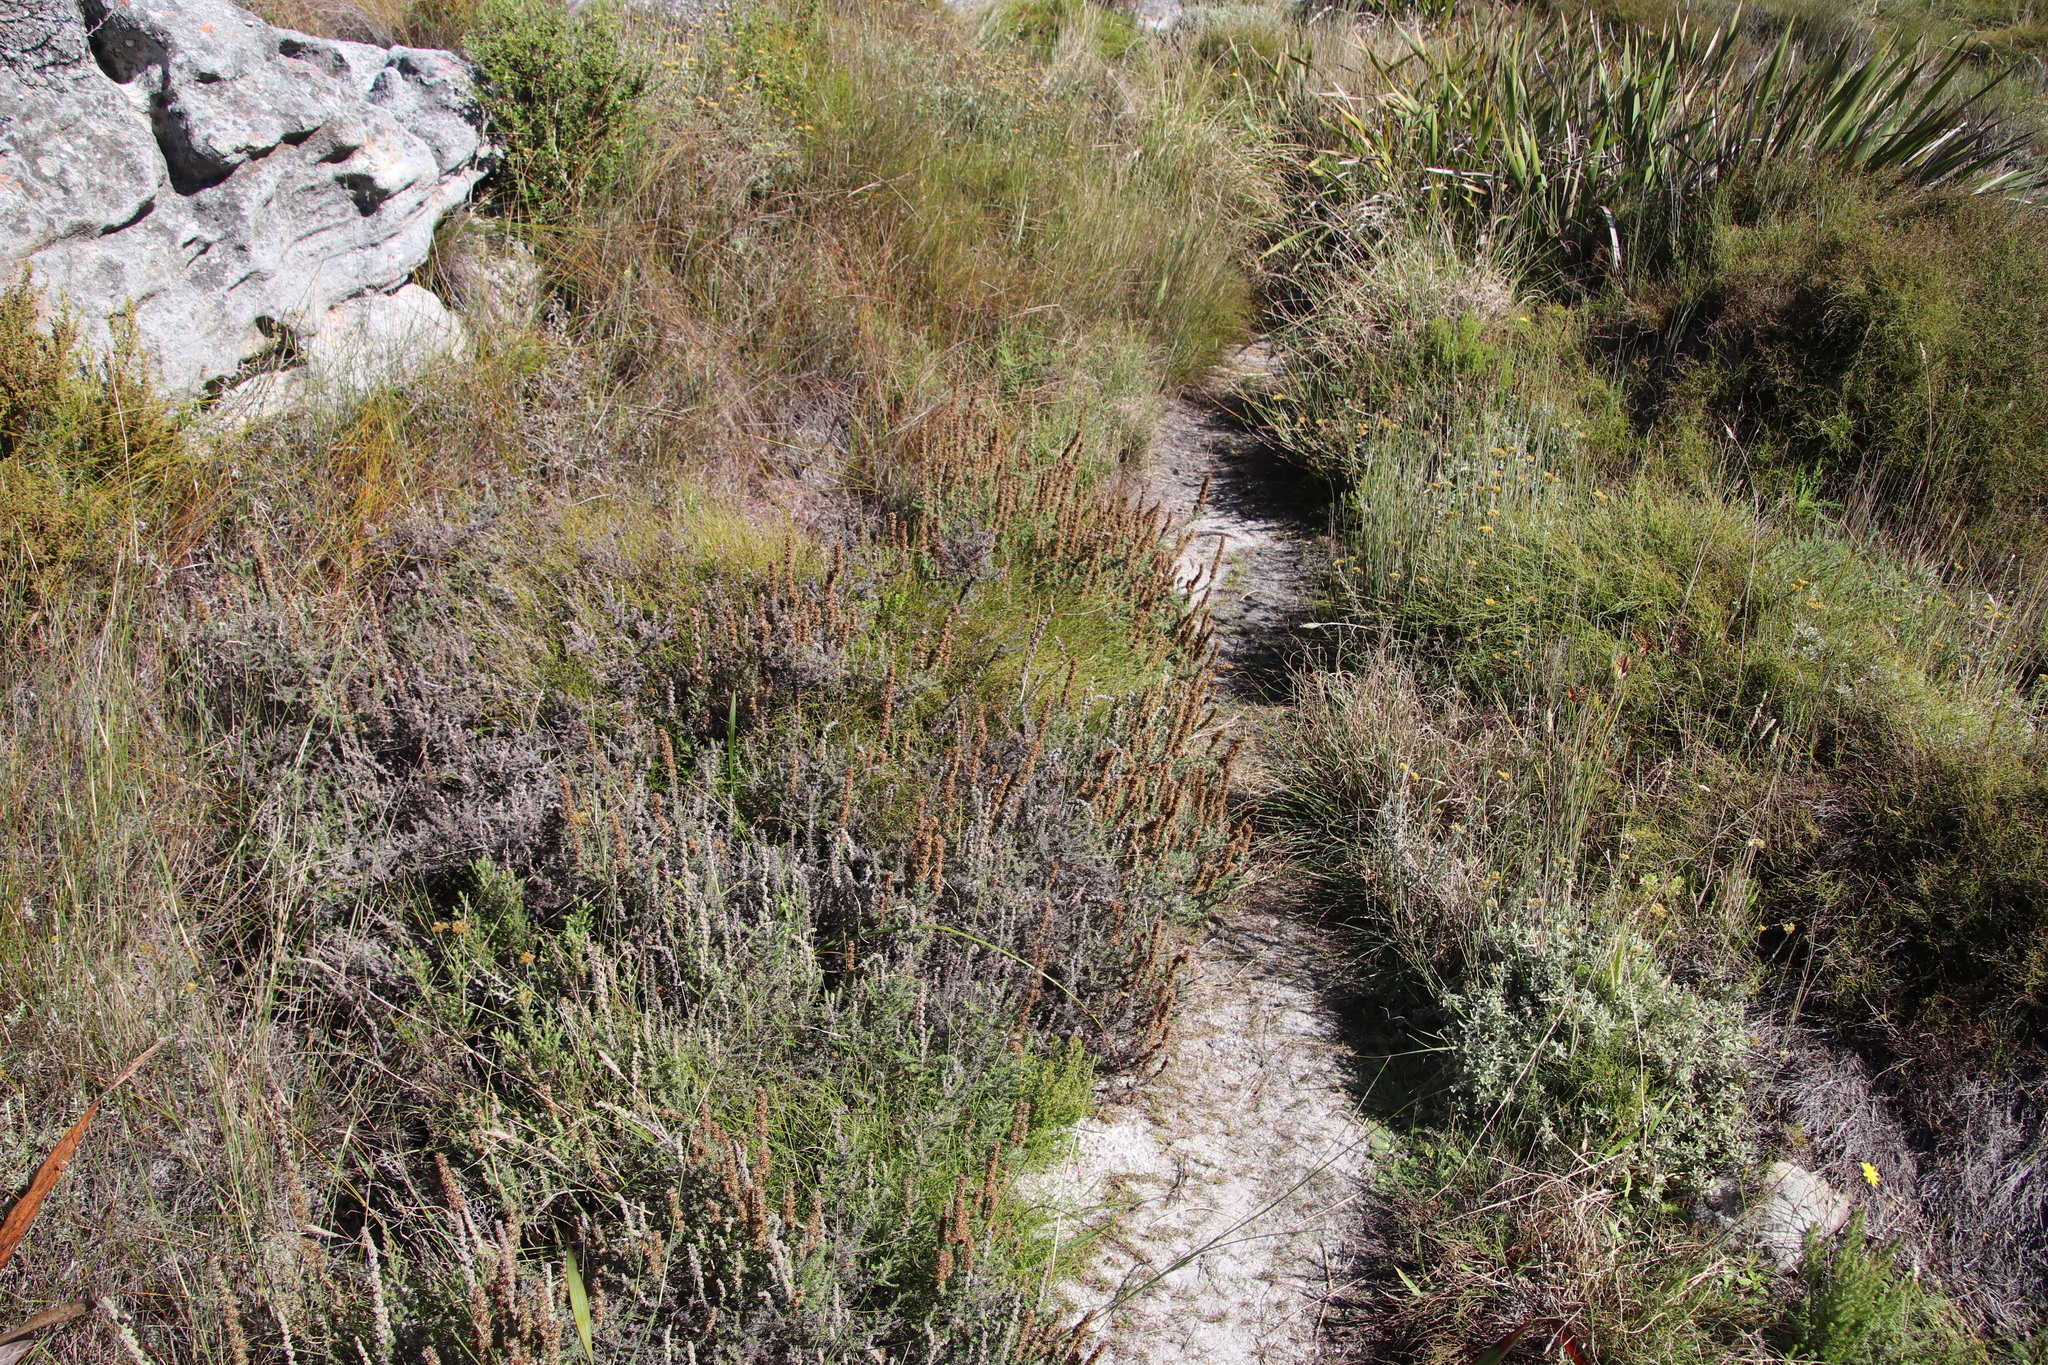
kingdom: Plantae
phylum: Tracheophyta
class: Magnoliopsida
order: Asterales
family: Asteraceae
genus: Seriphium
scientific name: Seriphium cinereum
